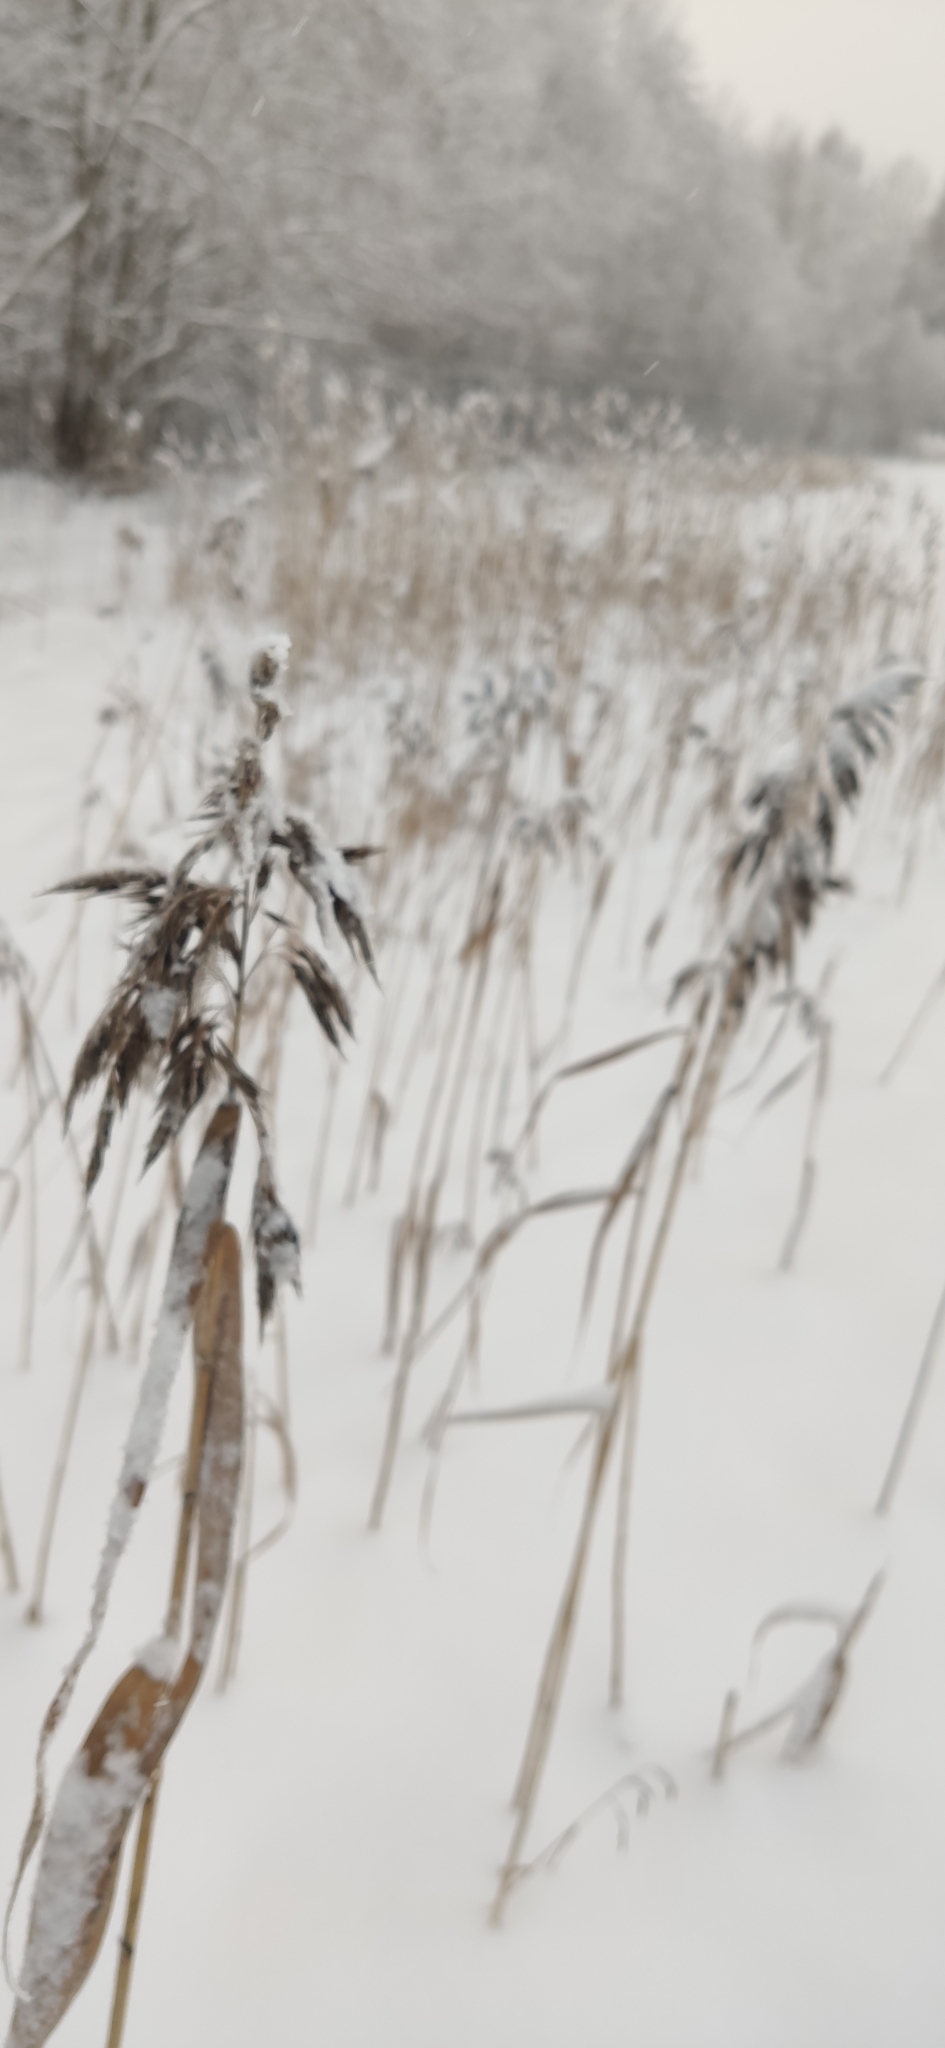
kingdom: Plantae
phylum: Tracheophyta
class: Liliopsida
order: Poales
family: Poaceae
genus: Phragmites
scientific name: Phragmites australis
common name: Common reed
